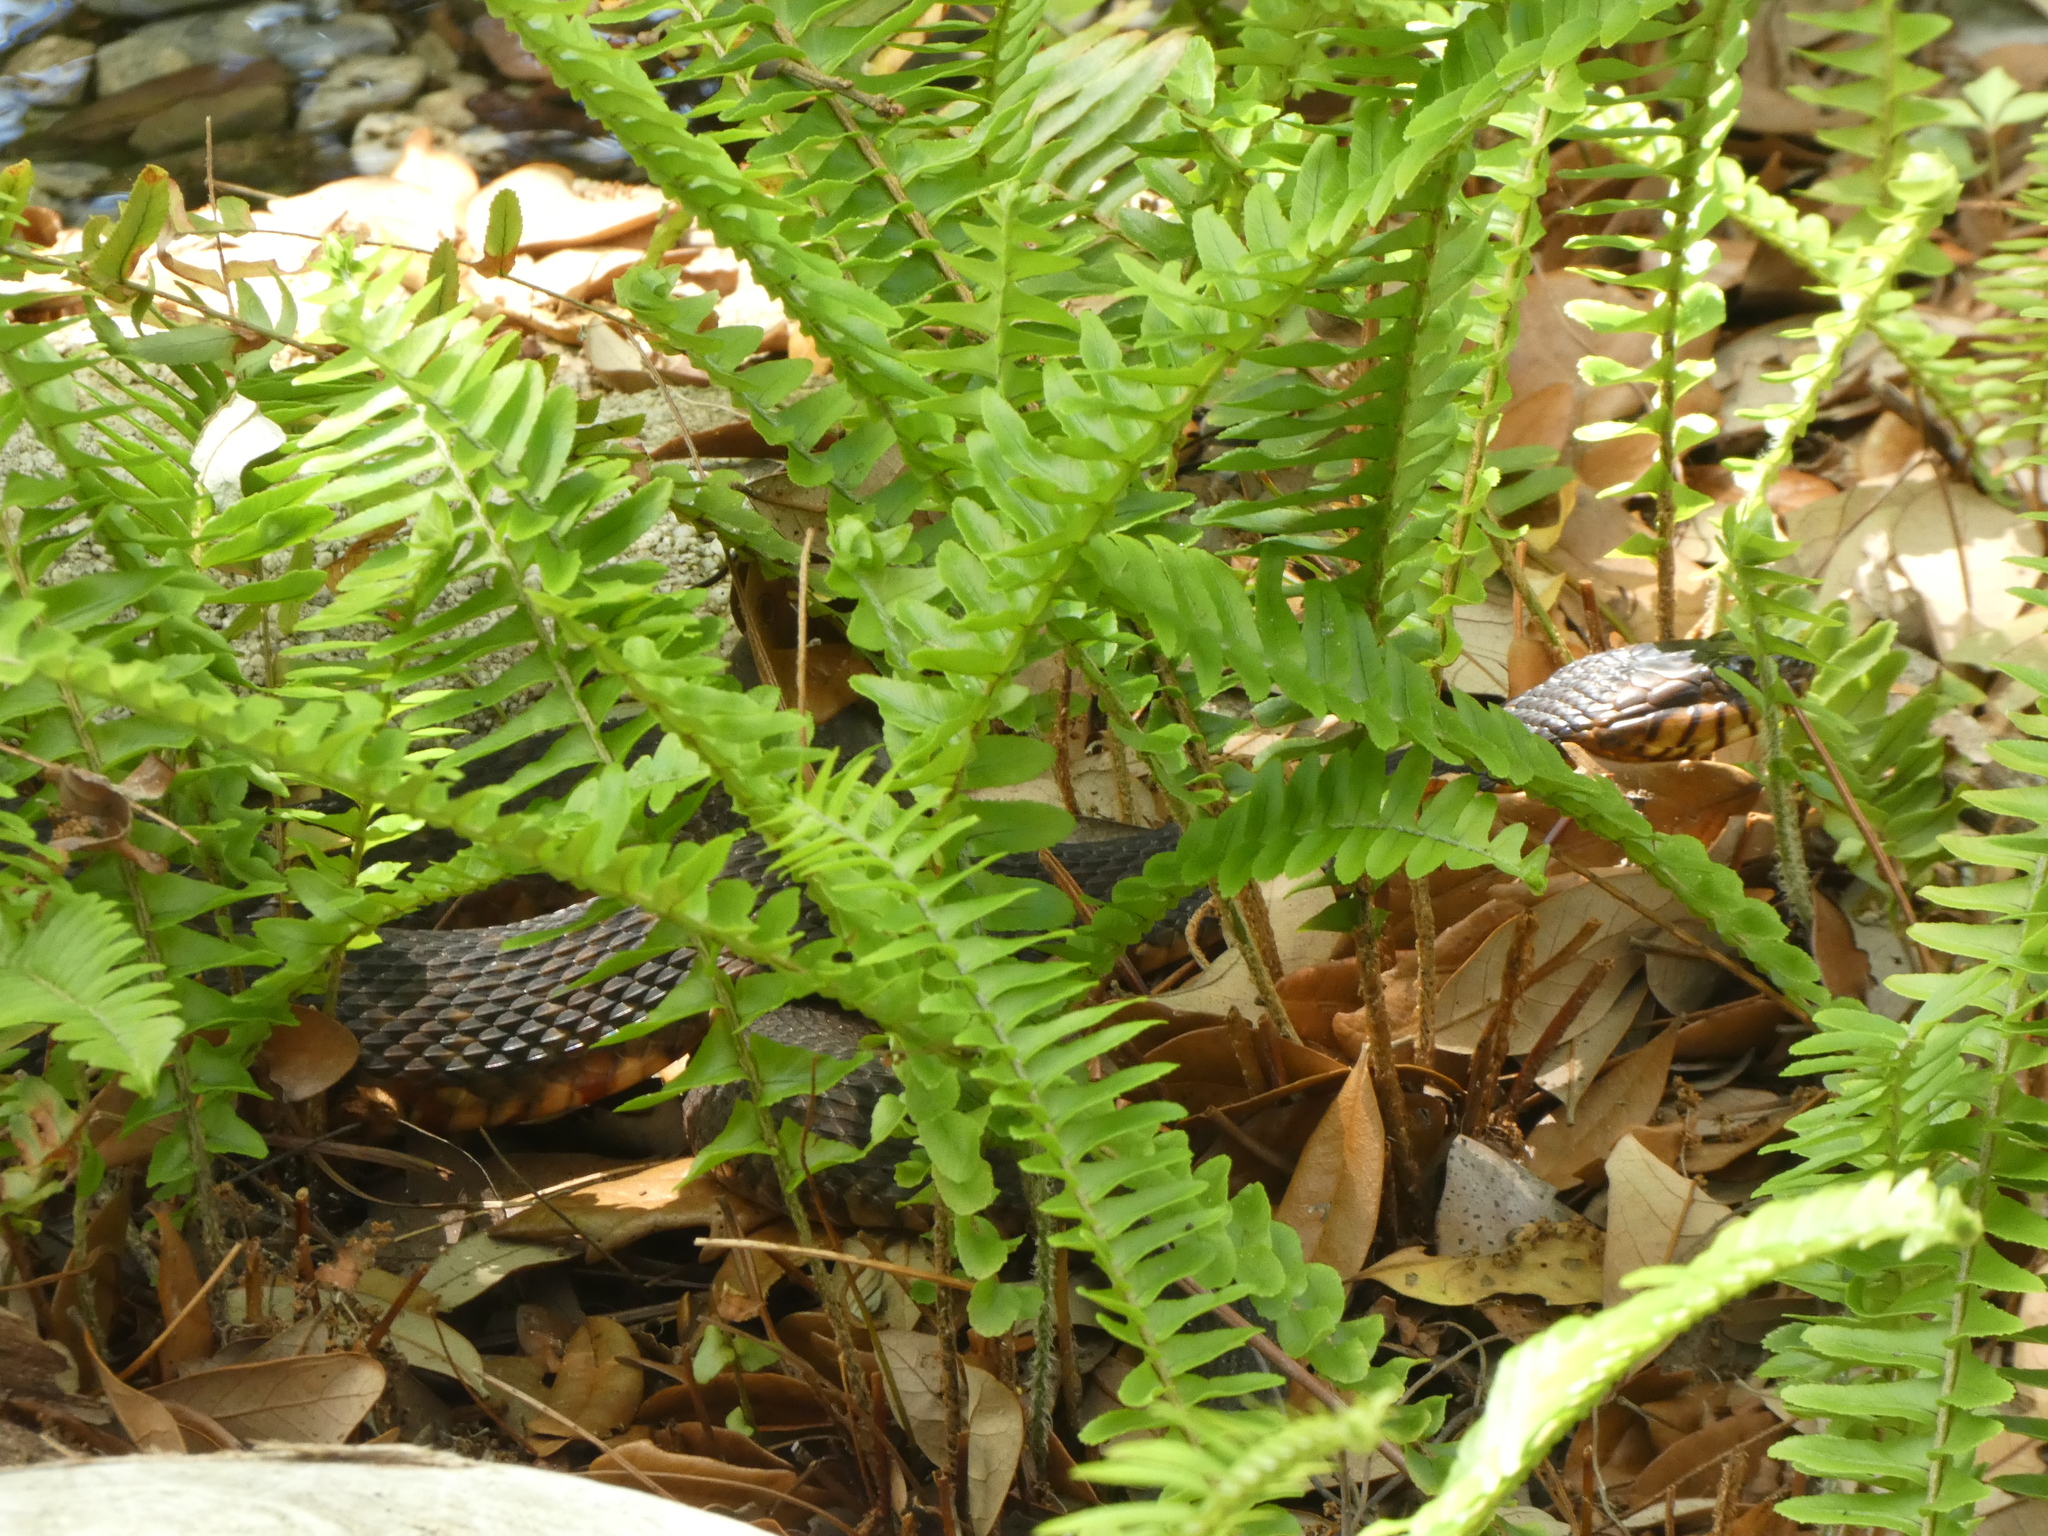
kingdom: Animalia
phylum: Chordata
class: Squamata
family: Colubridae
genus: Nerodia
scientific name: Nerodia fasciata
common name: Southern water snake
